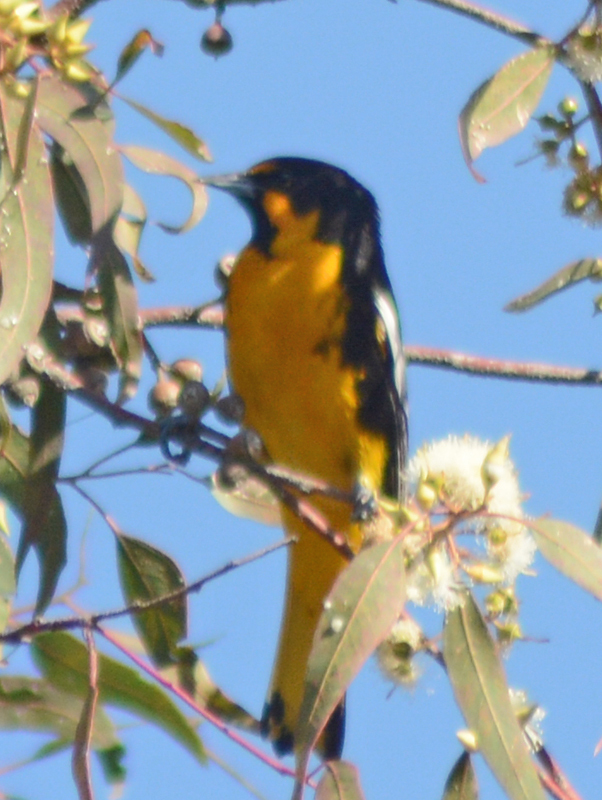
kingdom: Animalia
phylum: Chordata
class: Aves
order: Passeriformes
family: Icteridae
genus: Icterus
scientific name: Icterus abeillei
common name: Black-backed oriole
